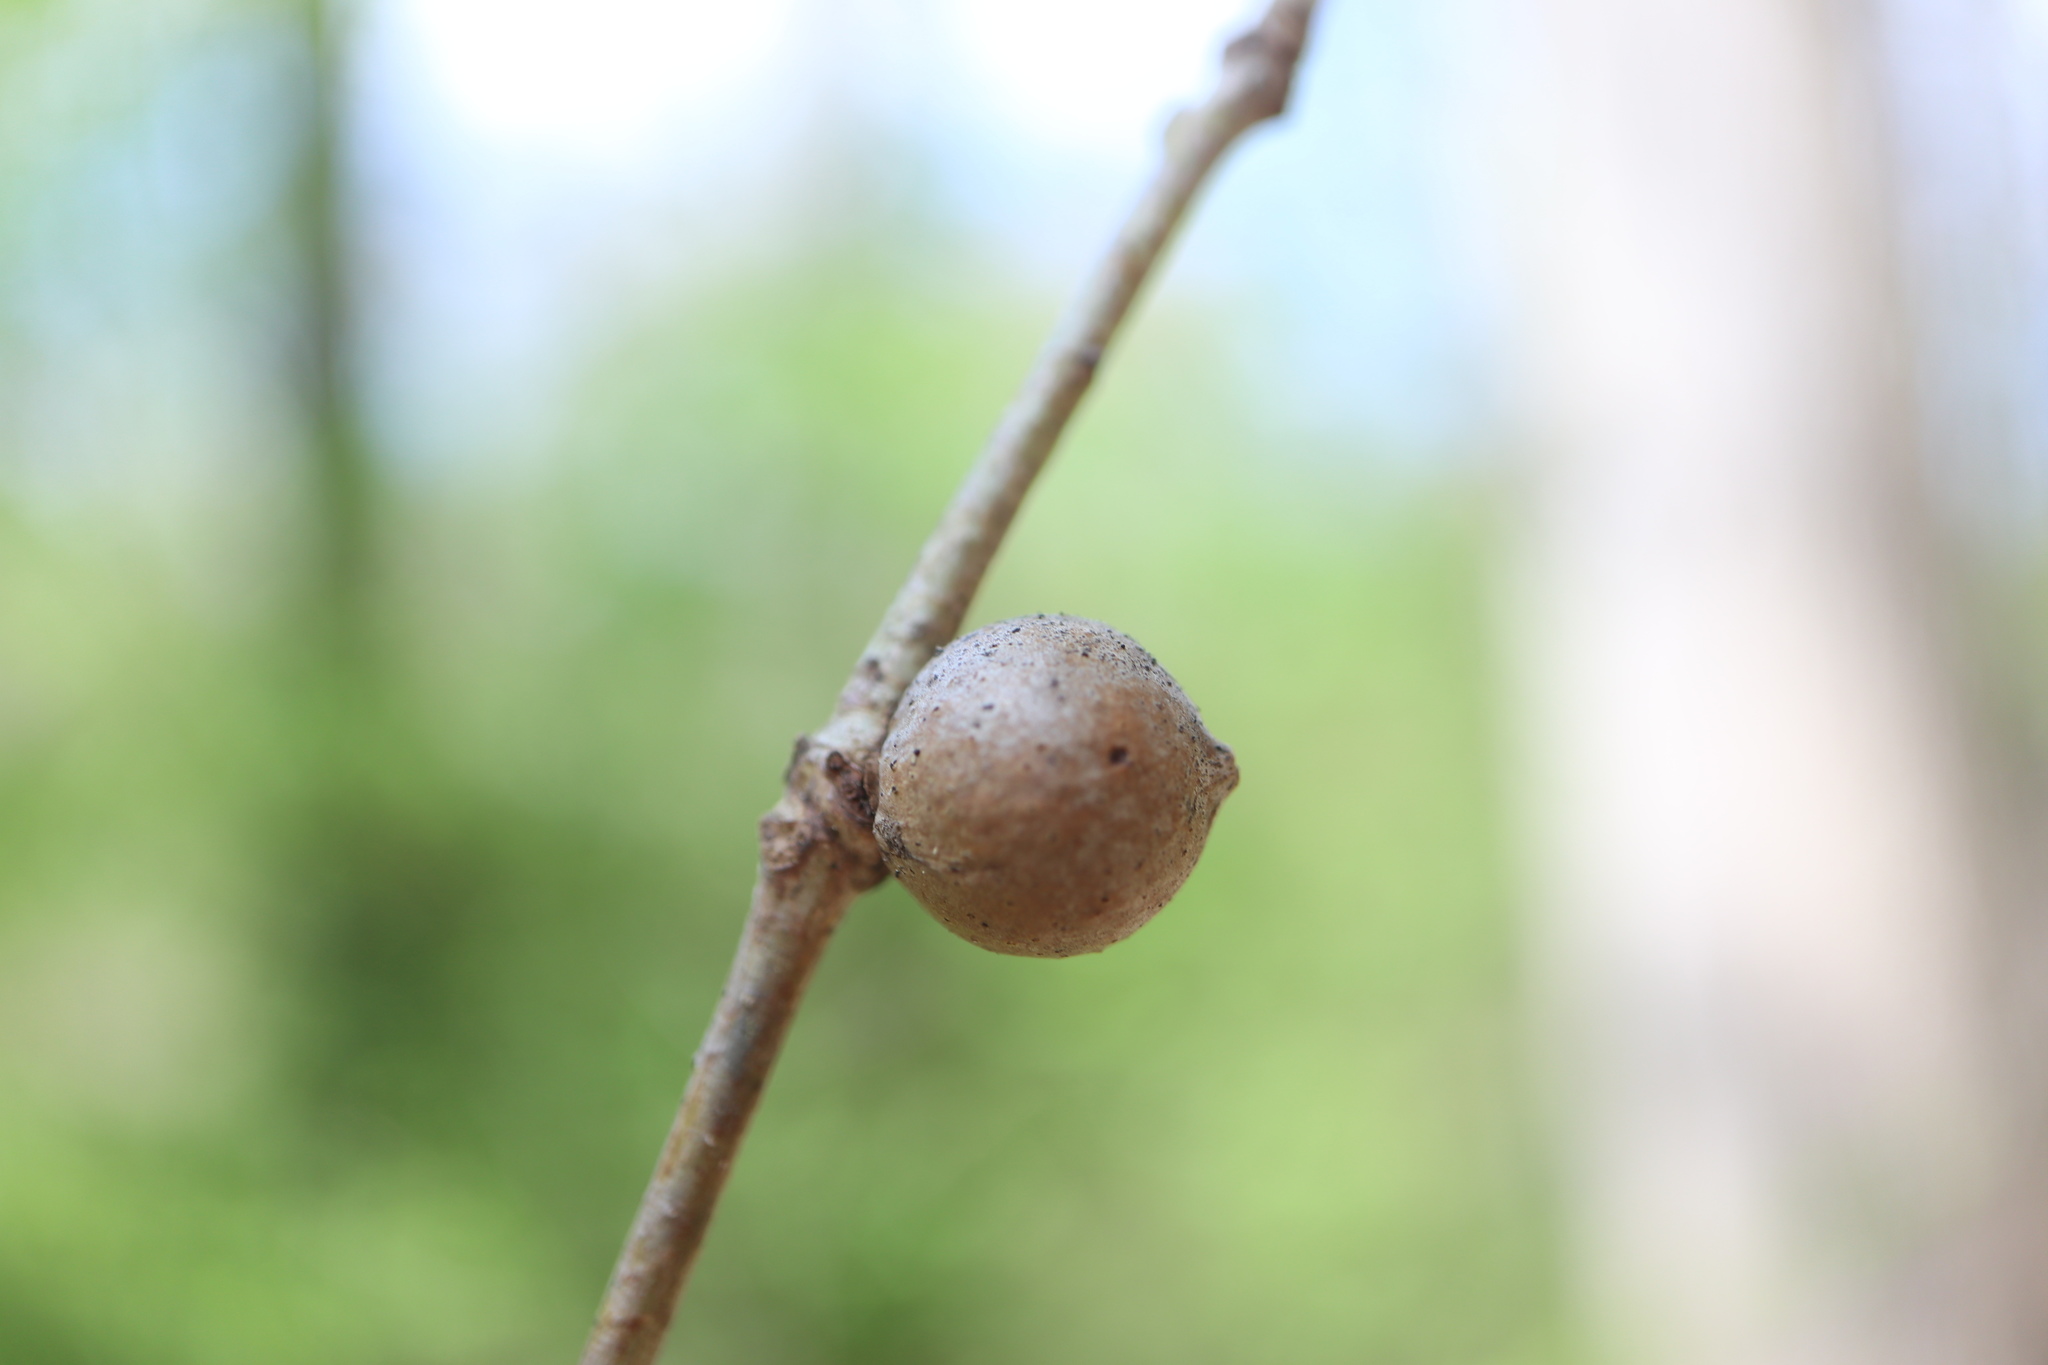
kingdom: Animalia
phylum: Arthropoda
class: Insecta
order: Hymenoptera
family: Cynipidae
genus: Disholcaspis
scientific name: Disholcaspis quercusglobulus
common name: Round bullet gall wasp
